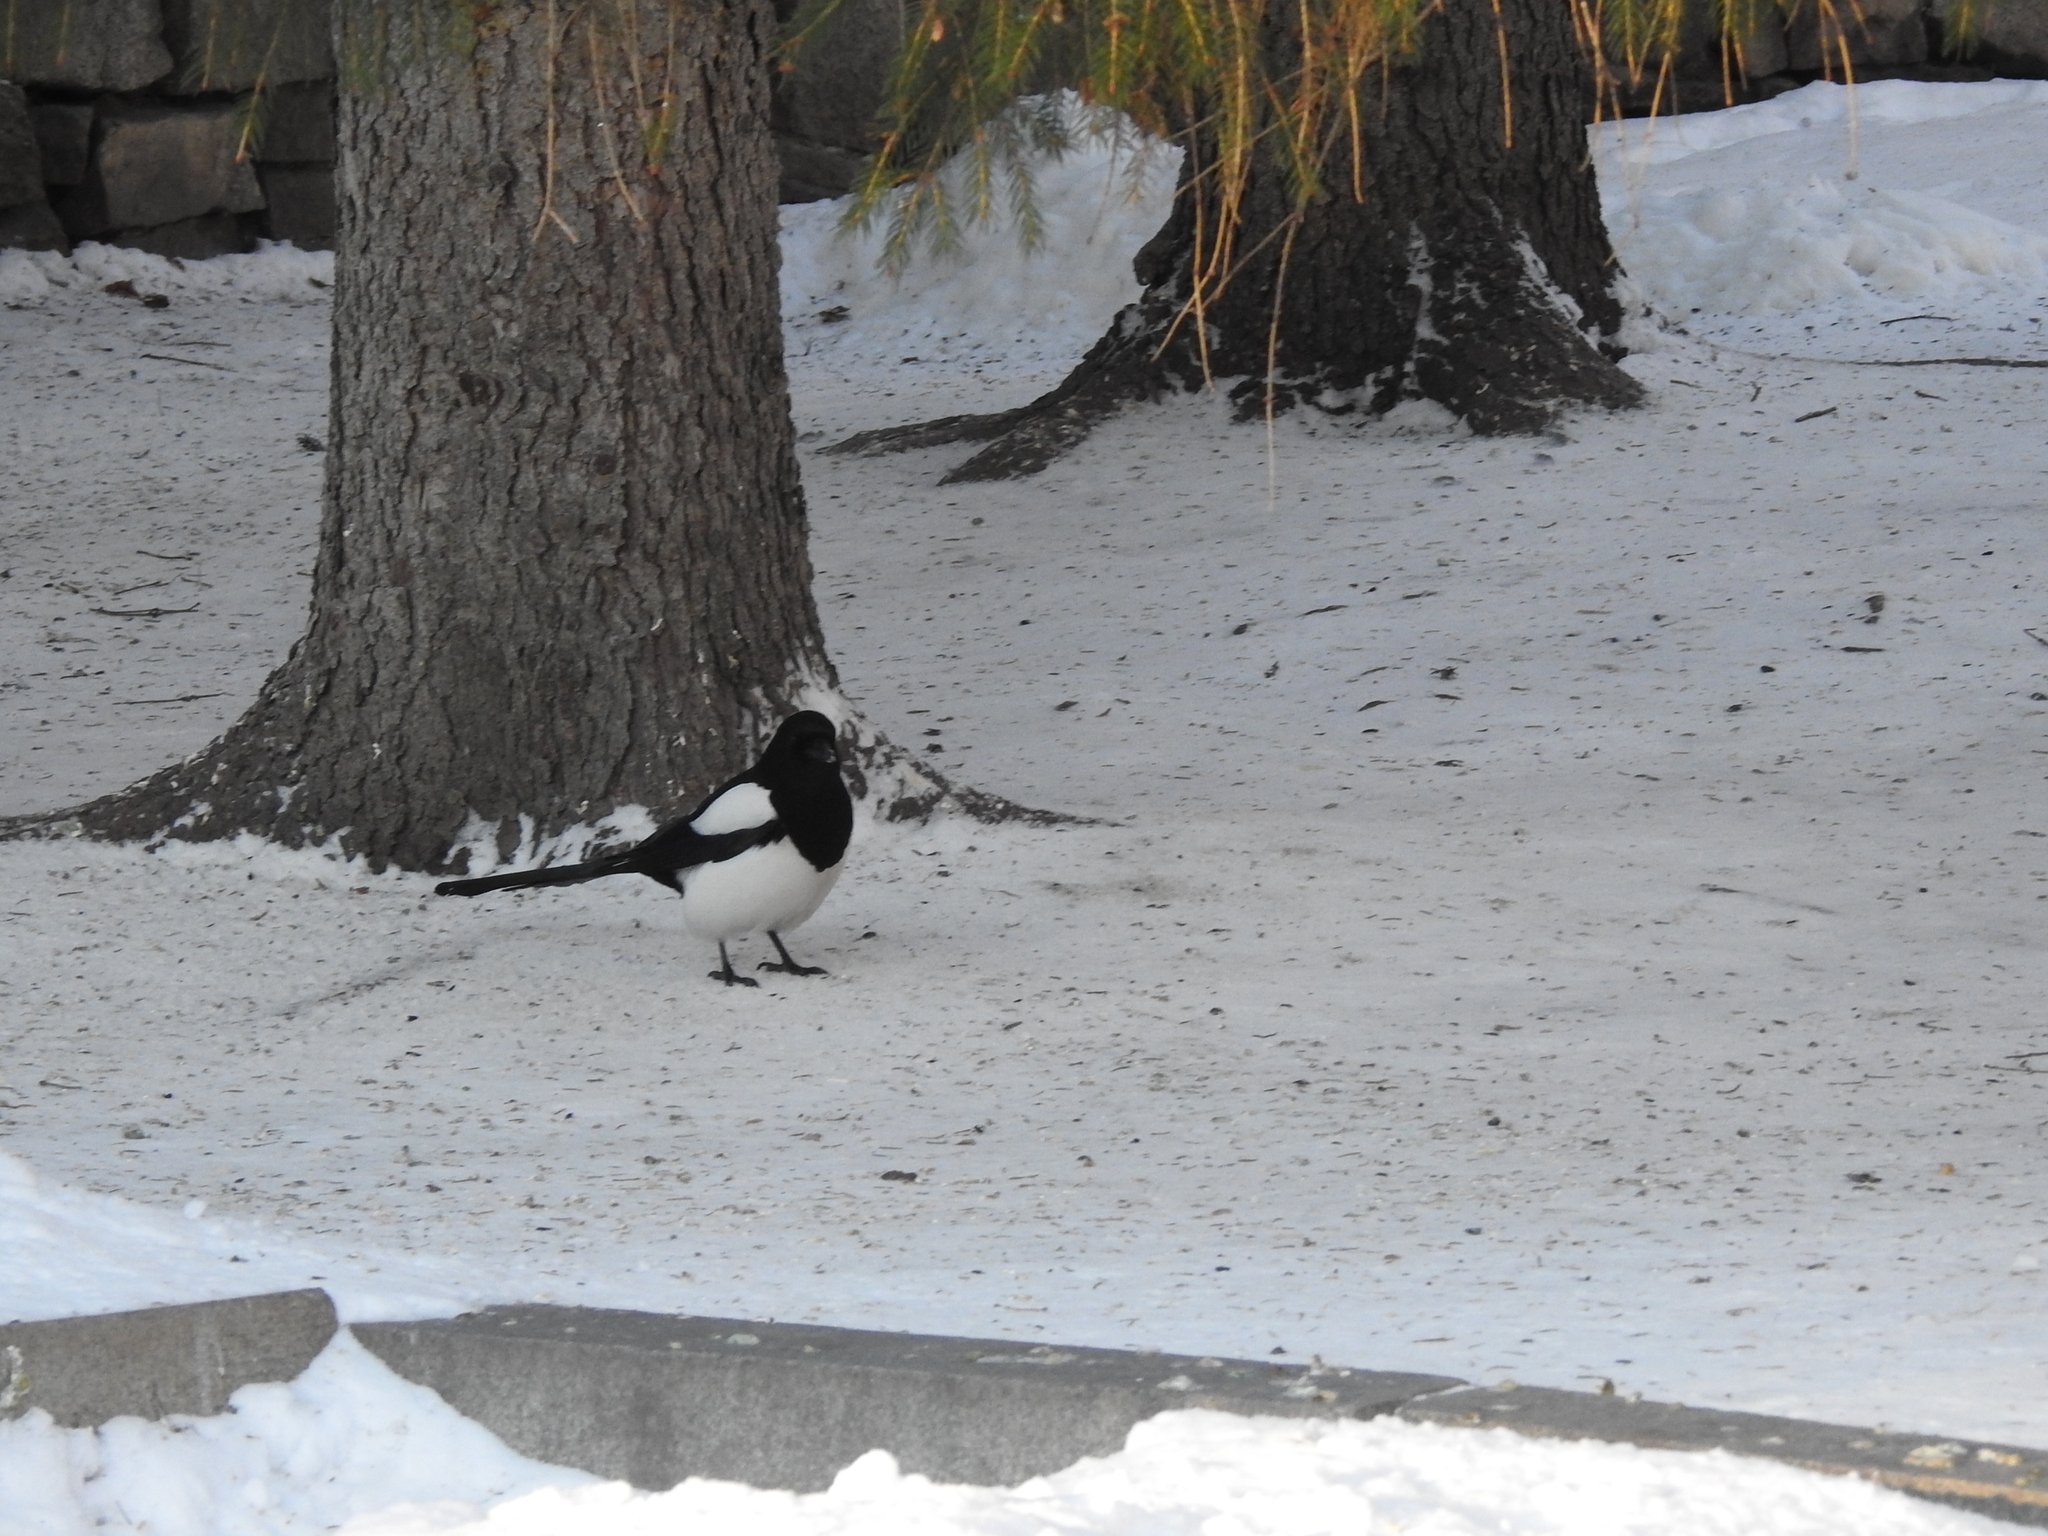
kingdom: Animalia
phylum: Chordata
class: Aves
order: Passeriformes
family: Corvidae
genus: Pica
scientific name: Pica pica
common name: Eurasian magpie
